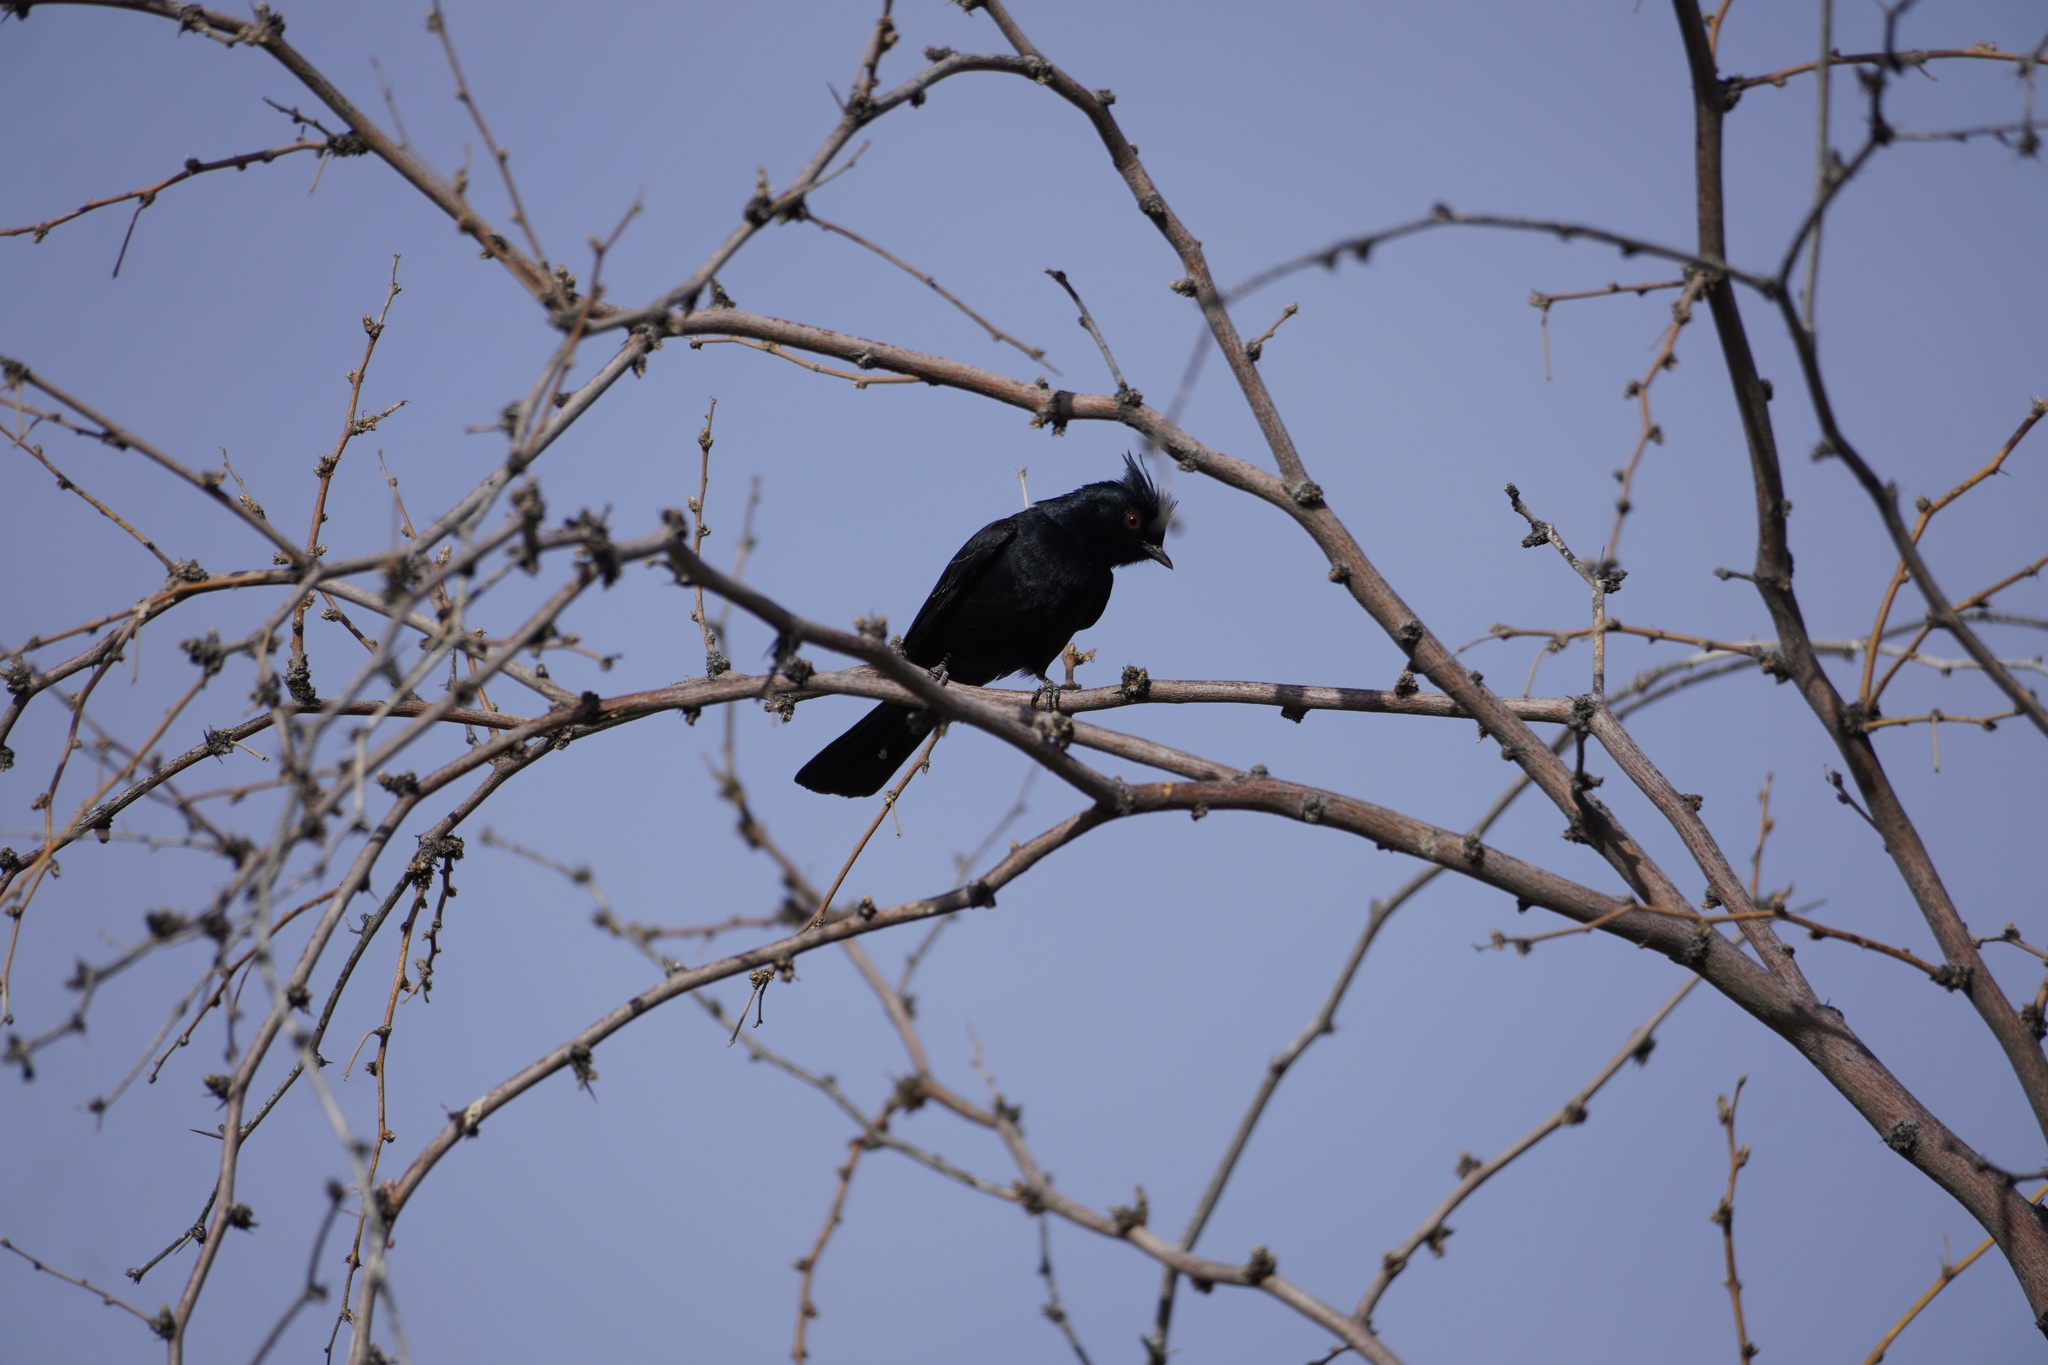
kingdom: Animalia
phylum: Chordata
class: Aves
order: Passeriformes
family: Ptilogonatidae
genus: Phainopepla
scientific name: Phainopepla nitens
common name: Phainopepla
